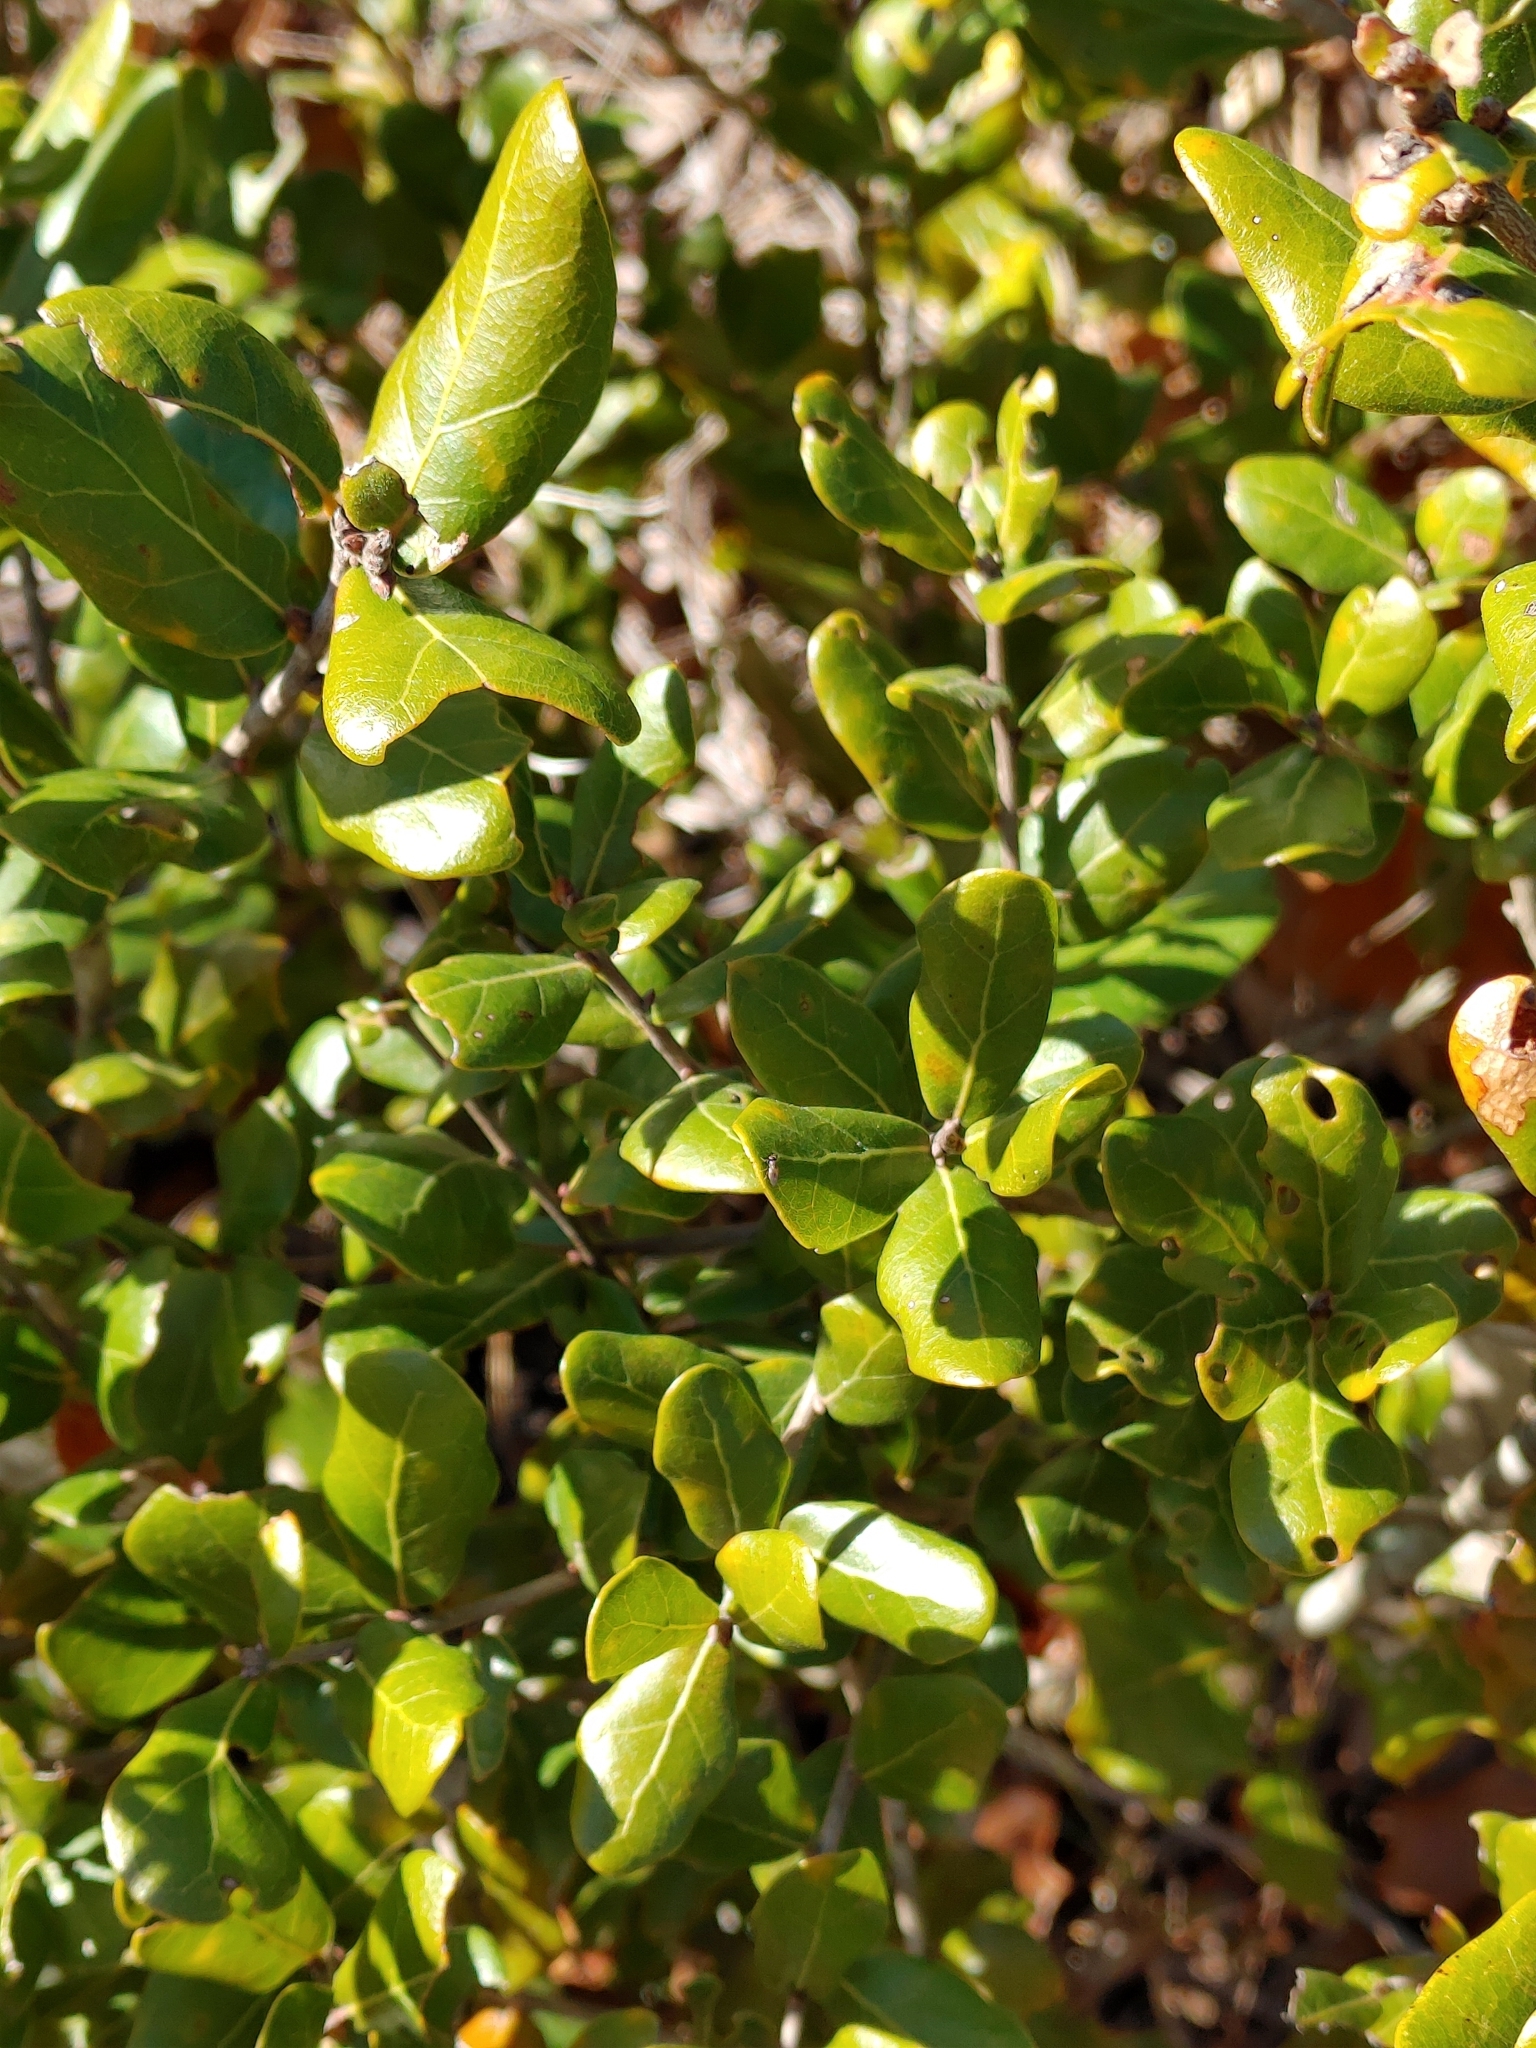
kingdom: Plantae
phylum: Tracheophyta
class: Magnoliopsida
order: Fagales
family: Fagaceae
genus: Quercus
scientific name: Quercus myrtifolia
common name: Myrtle oak
